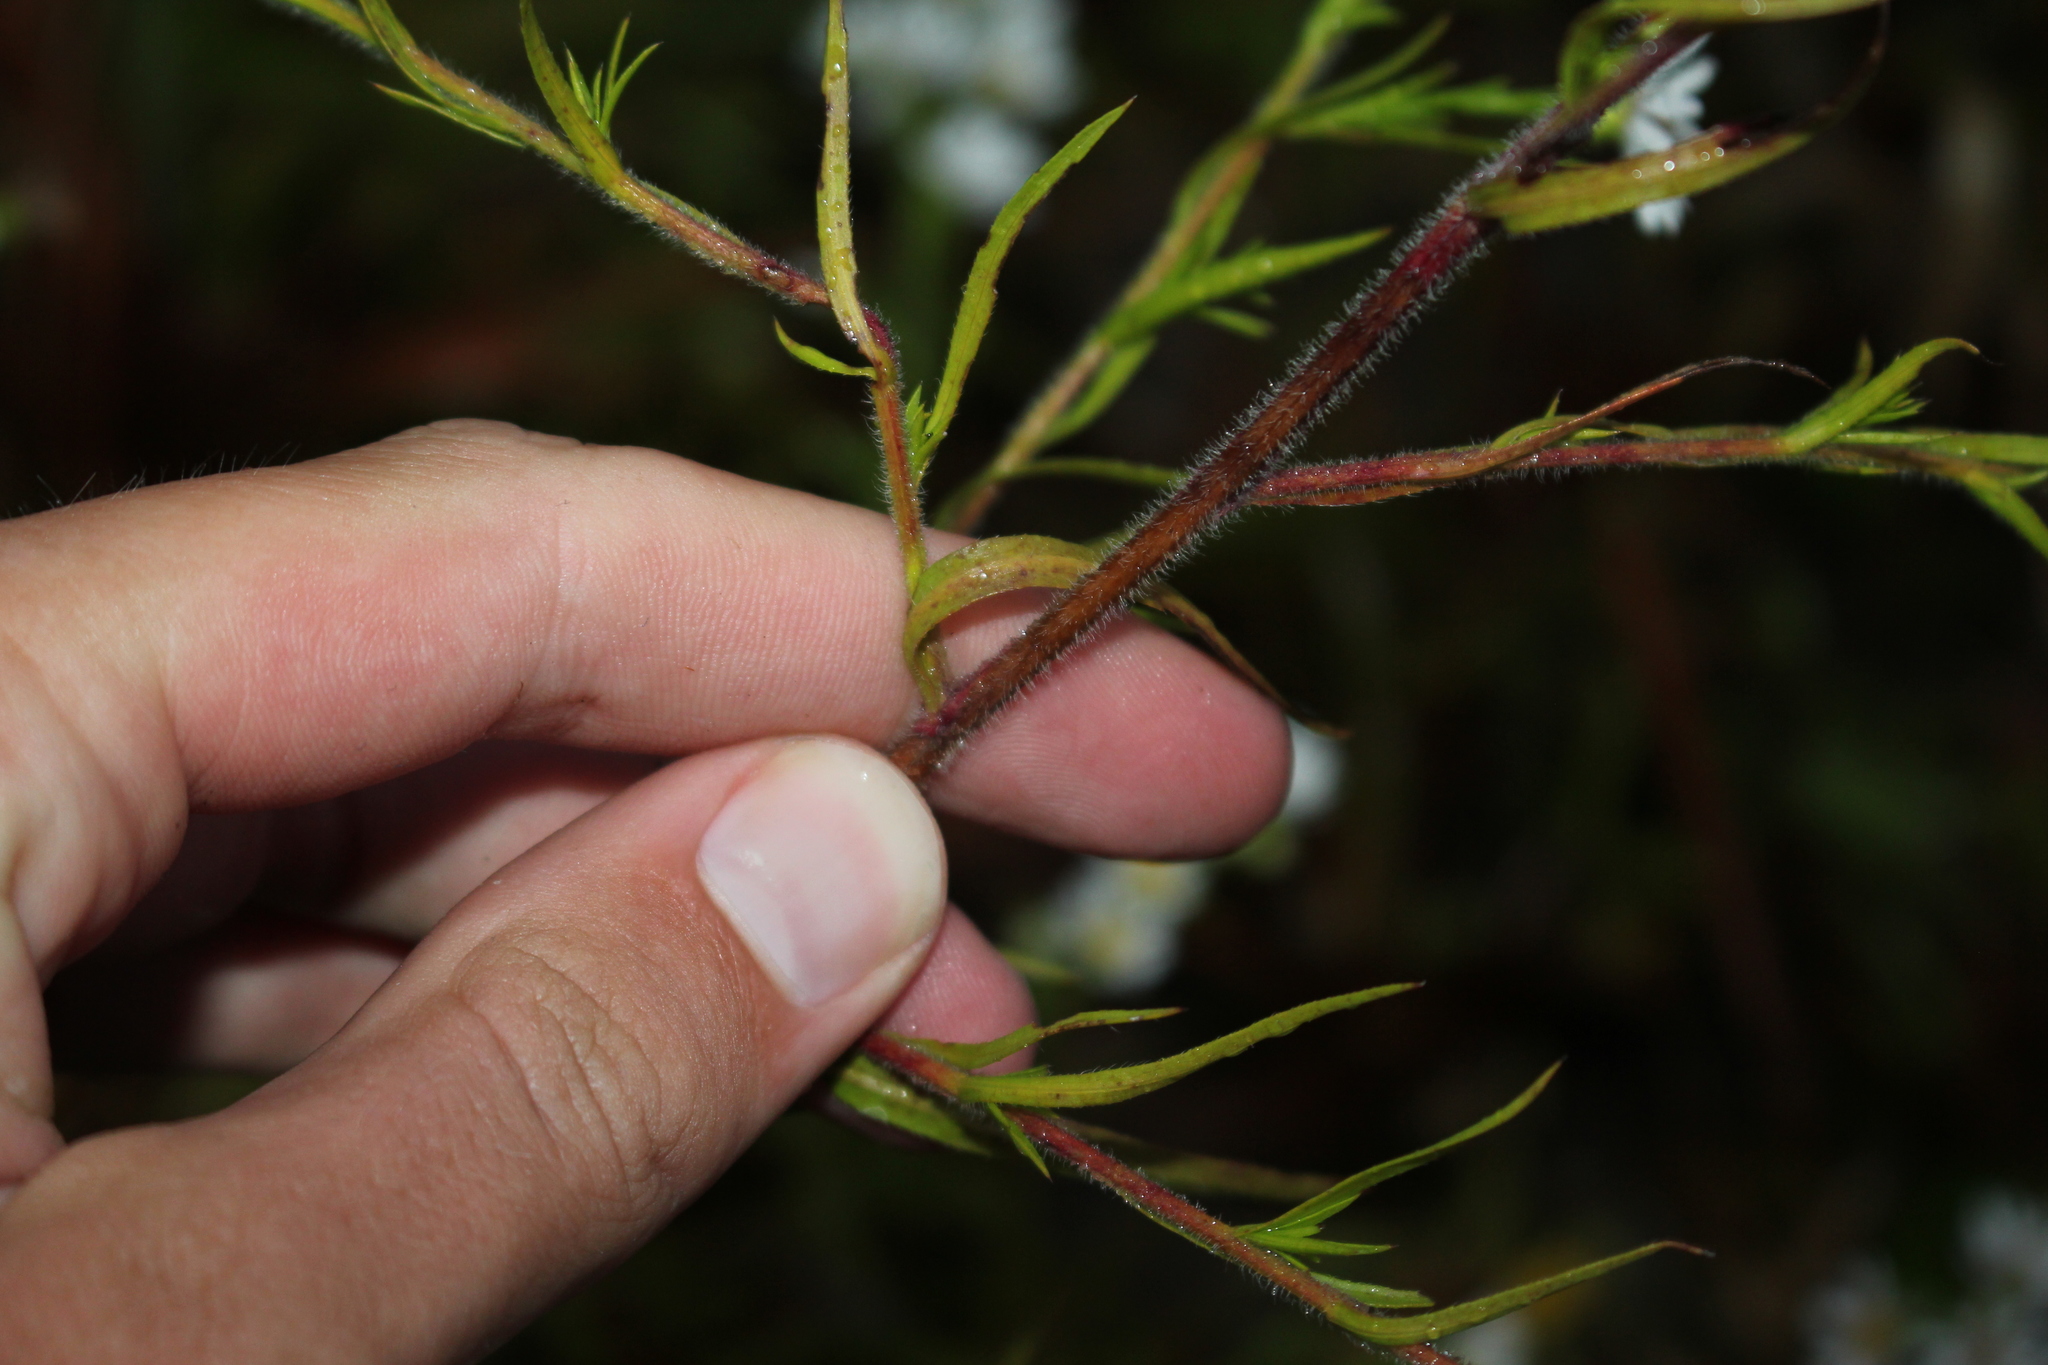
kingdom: Plantae
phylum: Tracheophyta
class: Magnoliopsida
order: Asterales
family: Asteraceae
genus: Symphyotrichum
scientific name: Symphyotrichum pilosum
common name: Awl aster
